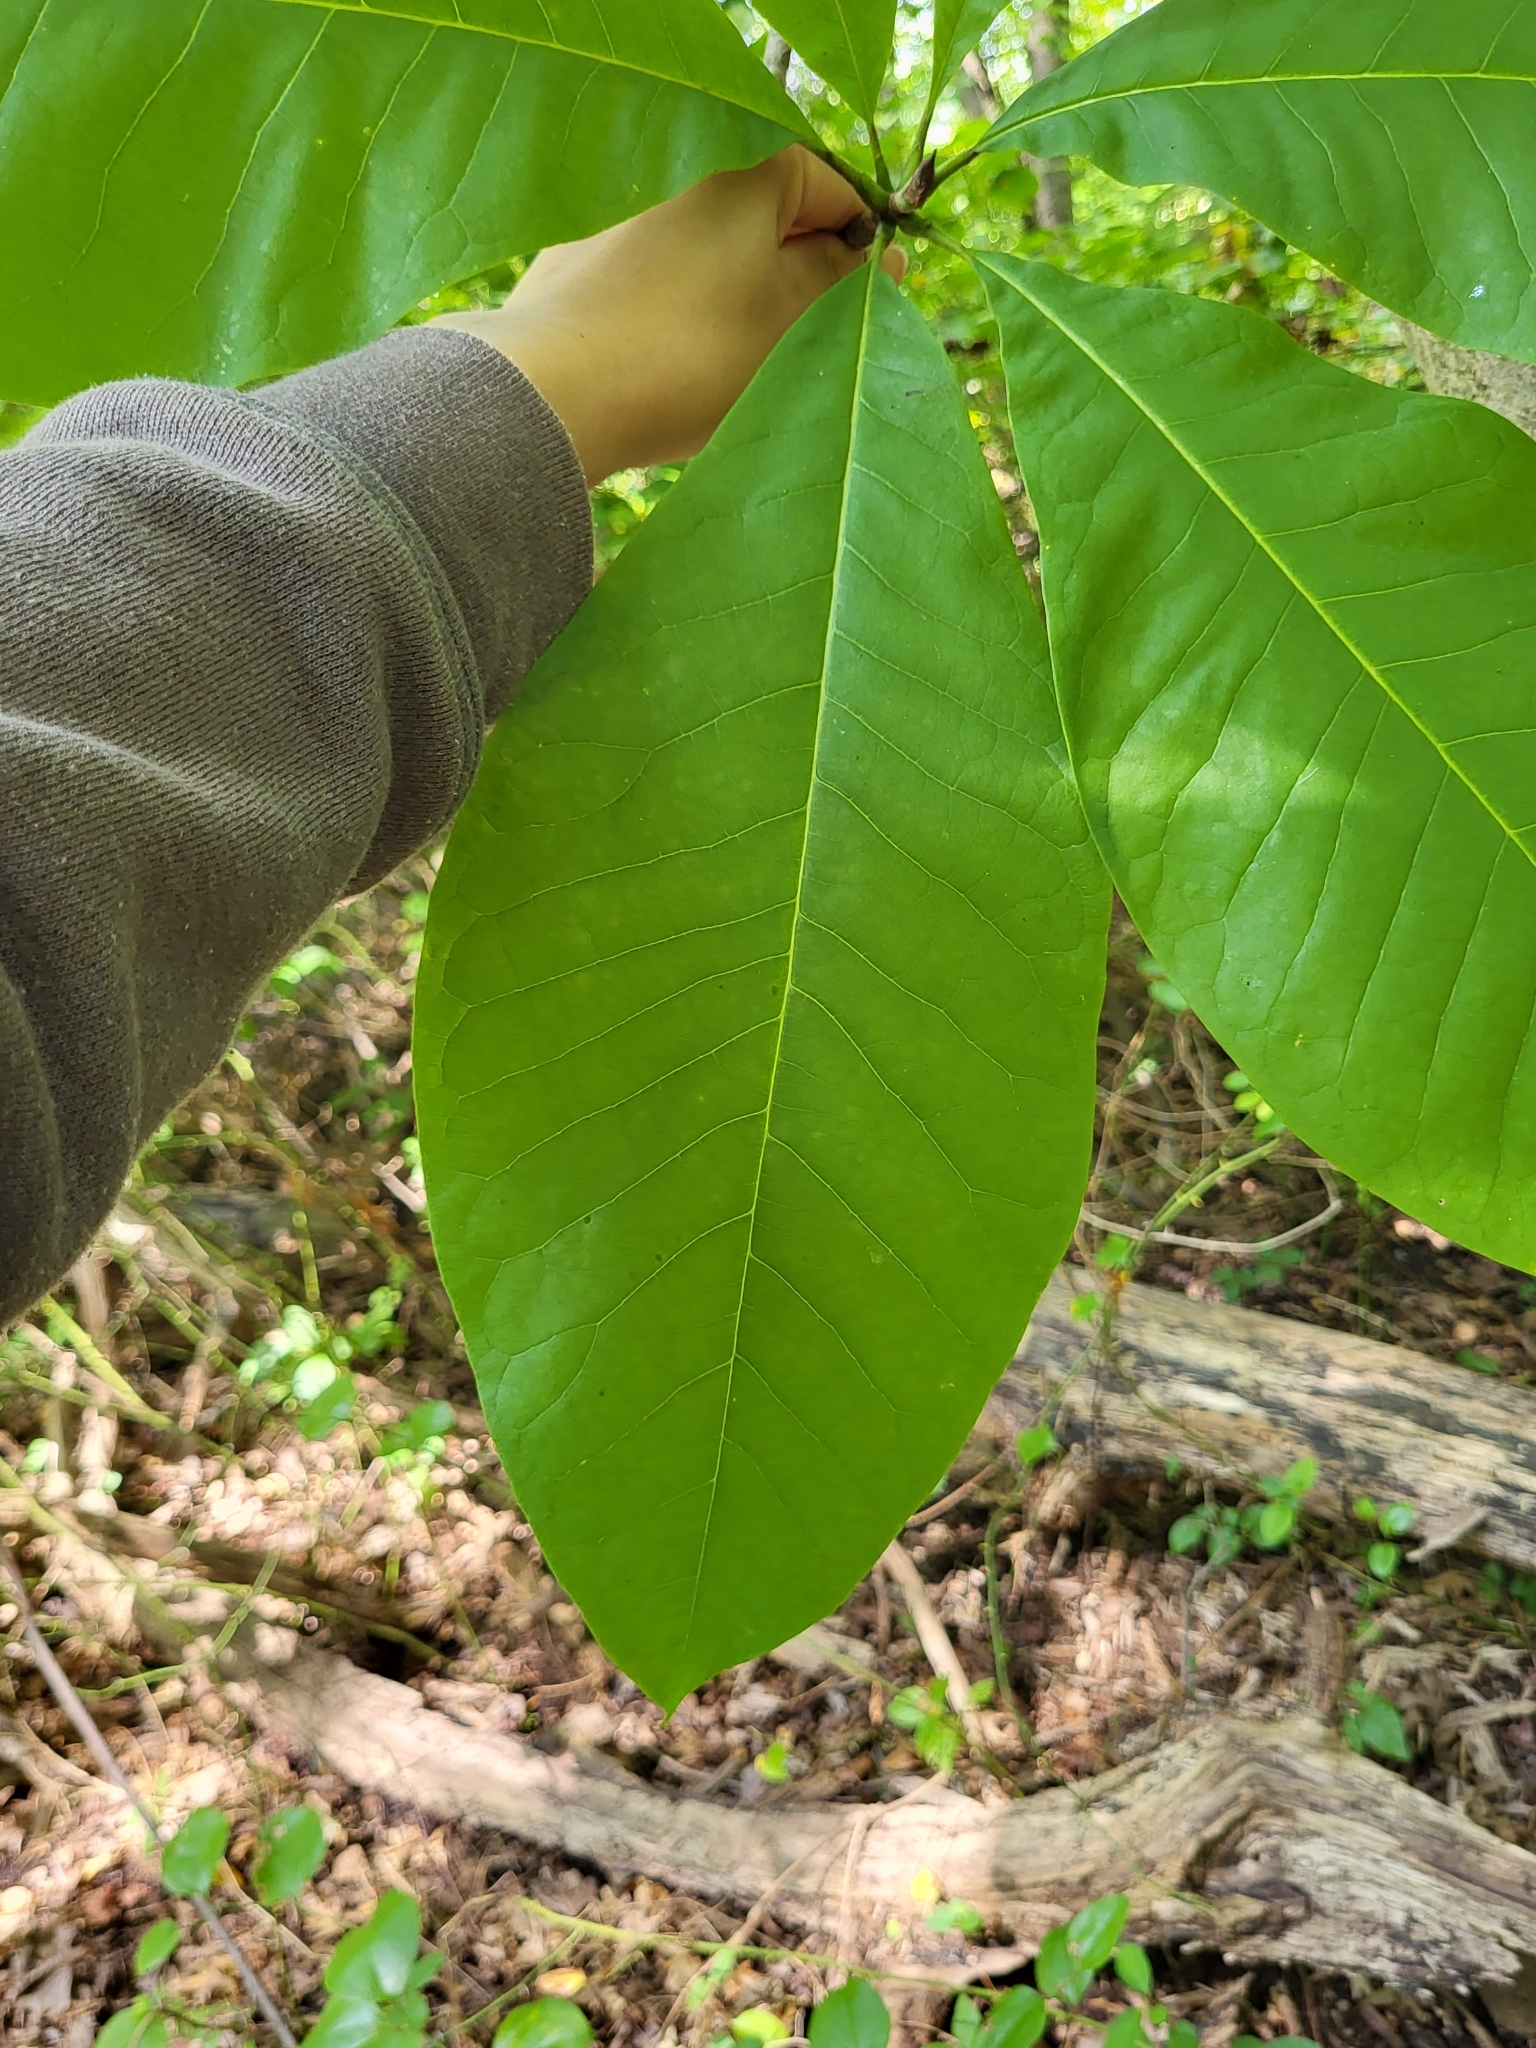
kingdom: Plantae
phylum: Tracheophyta
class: Magnoliopsida
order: Magnoliales
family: Magnoliaceae
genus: Magnolia
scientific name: Magnolia tripetala
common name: Umbrella magnolia
